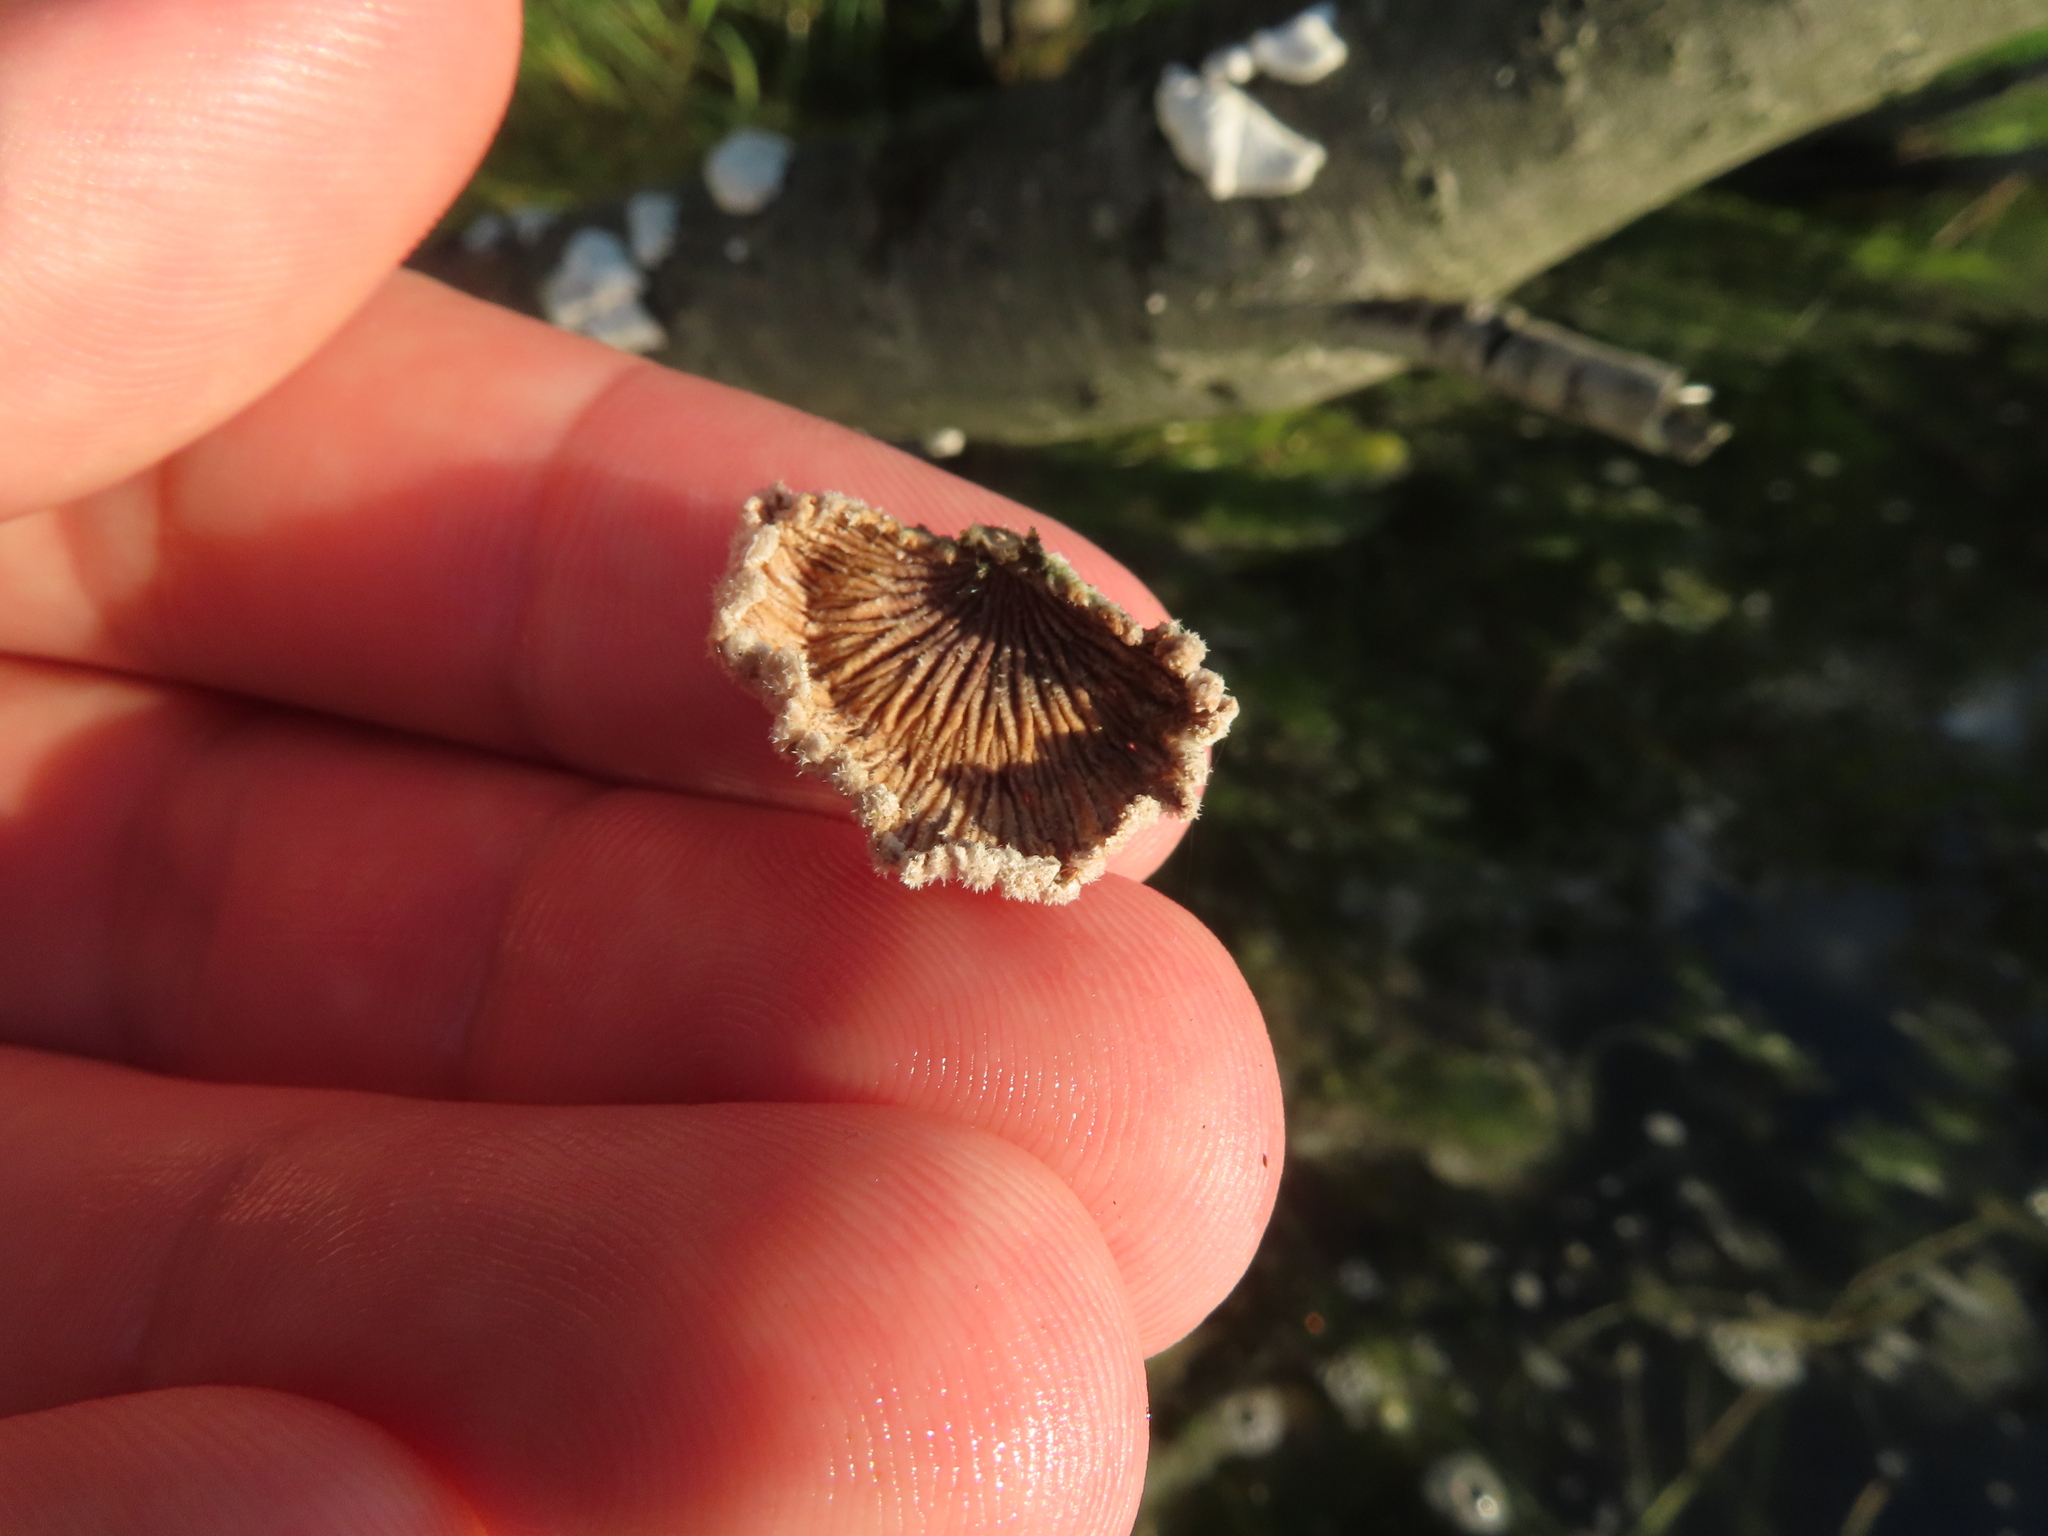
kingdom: Fungi
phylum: Basidiomycota
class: Agaricomycetes
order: Agaricales
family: Schizophyllaceae
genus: Schizophyllum
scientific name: Schizophyllum commune
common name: Common porecrust
